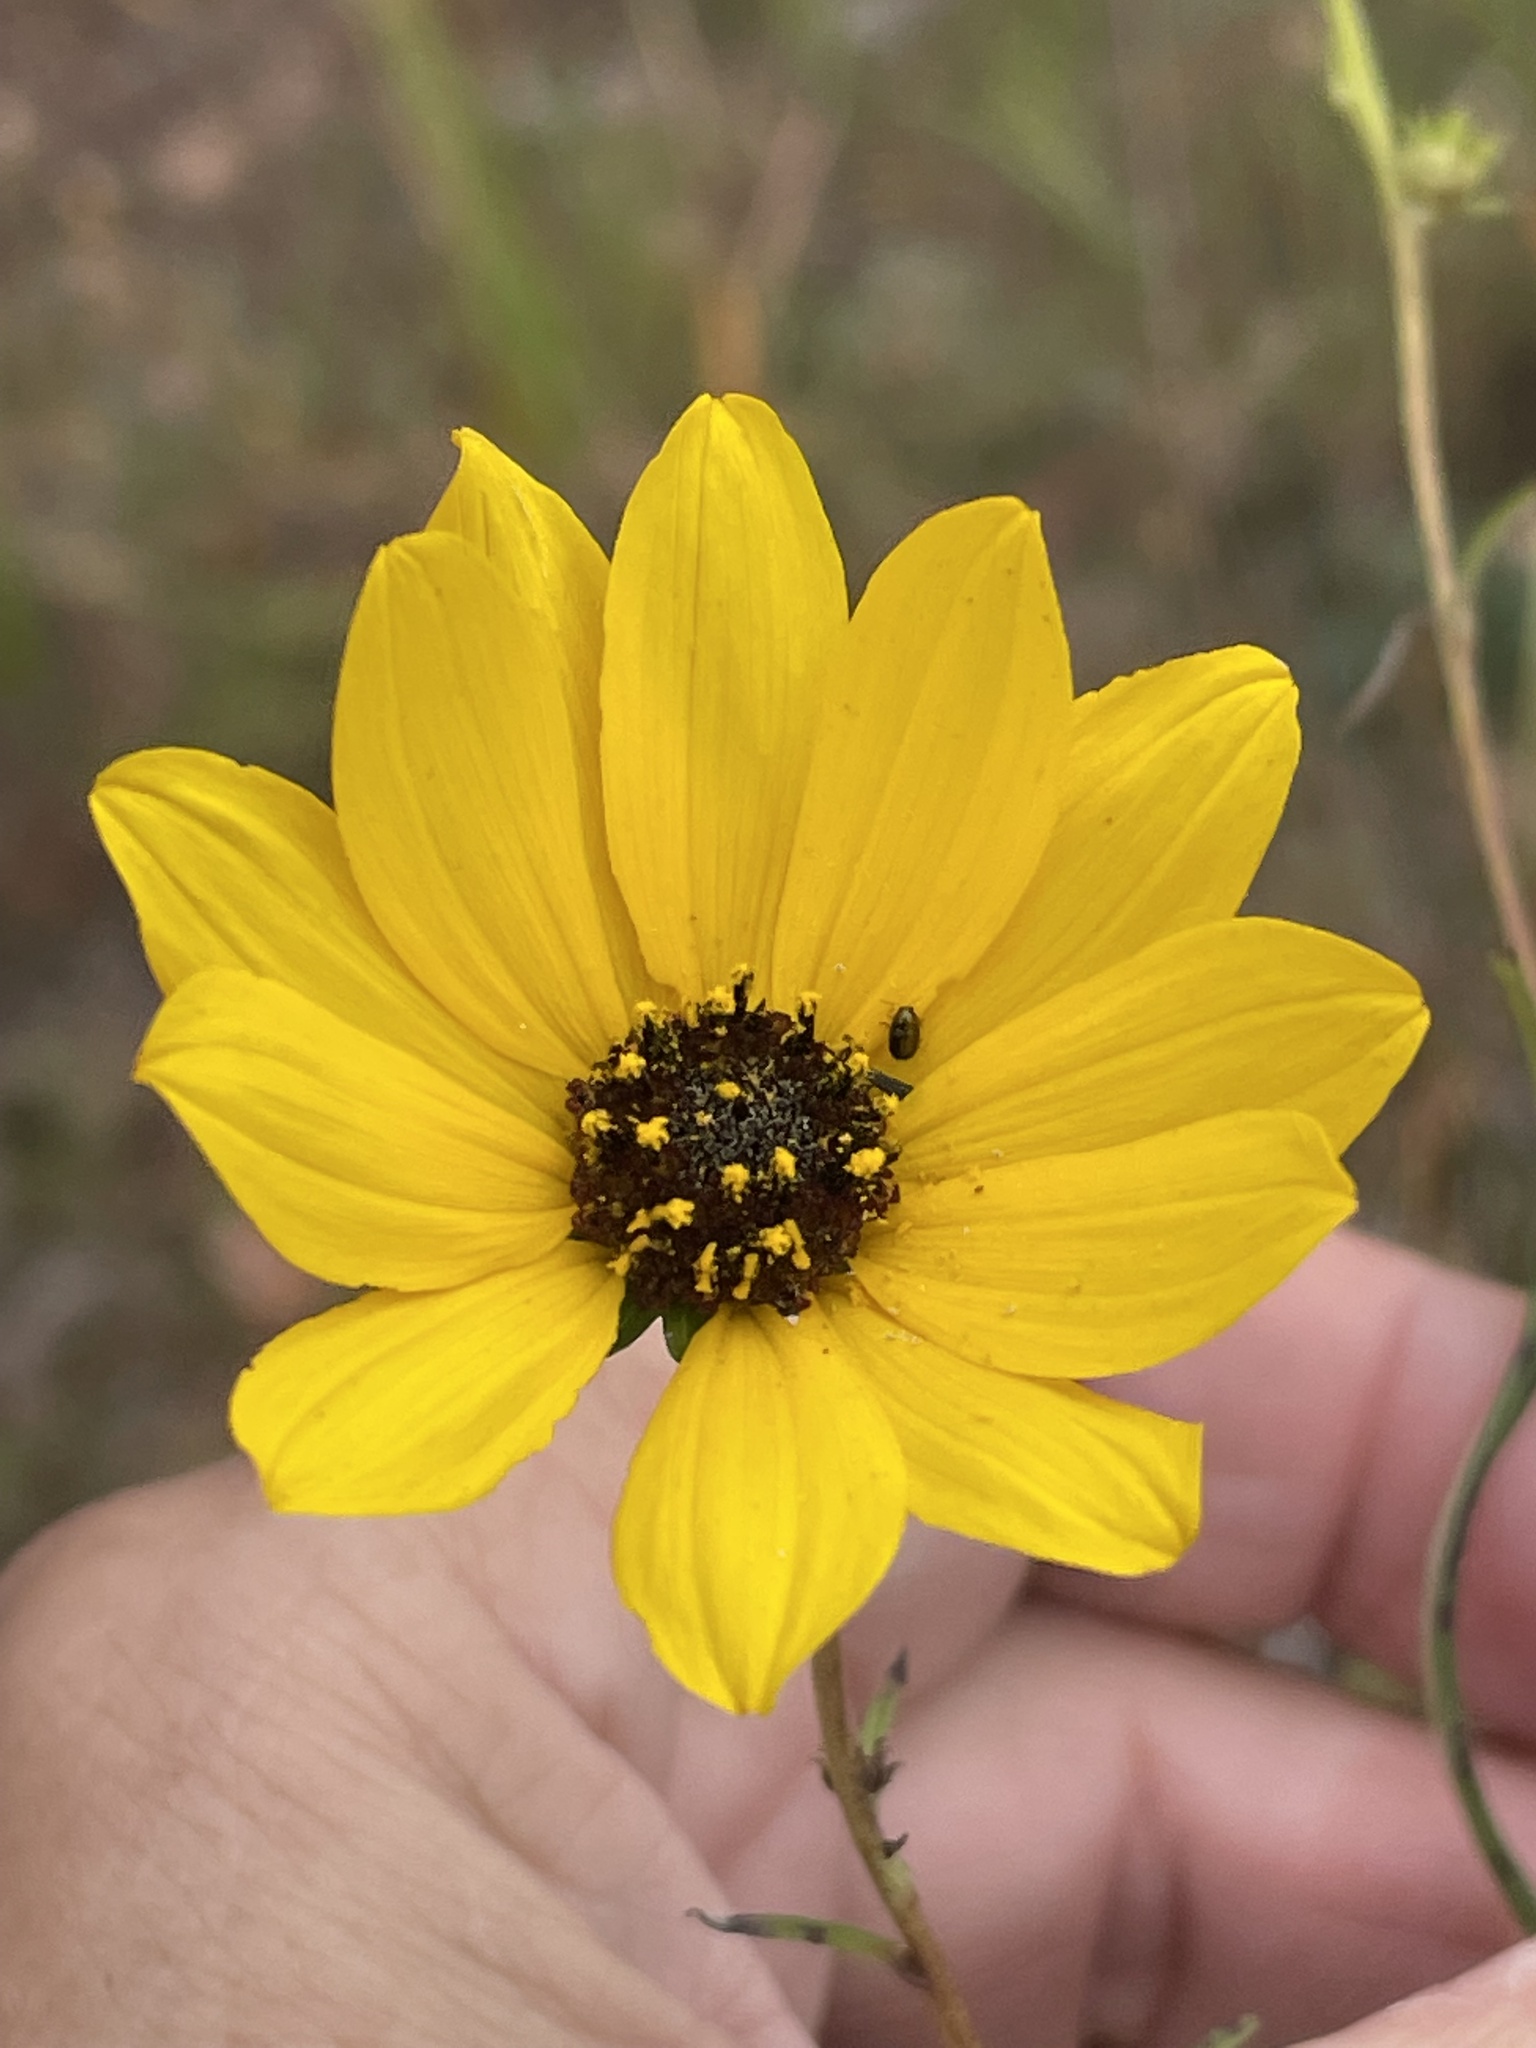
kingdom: Plantae
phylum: Tracheophyta
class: Magnoliopsida
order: Asterales
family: Asteraceae
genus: Helianthus
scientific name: Helianthus angustifolius
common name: Swamp sunflower
